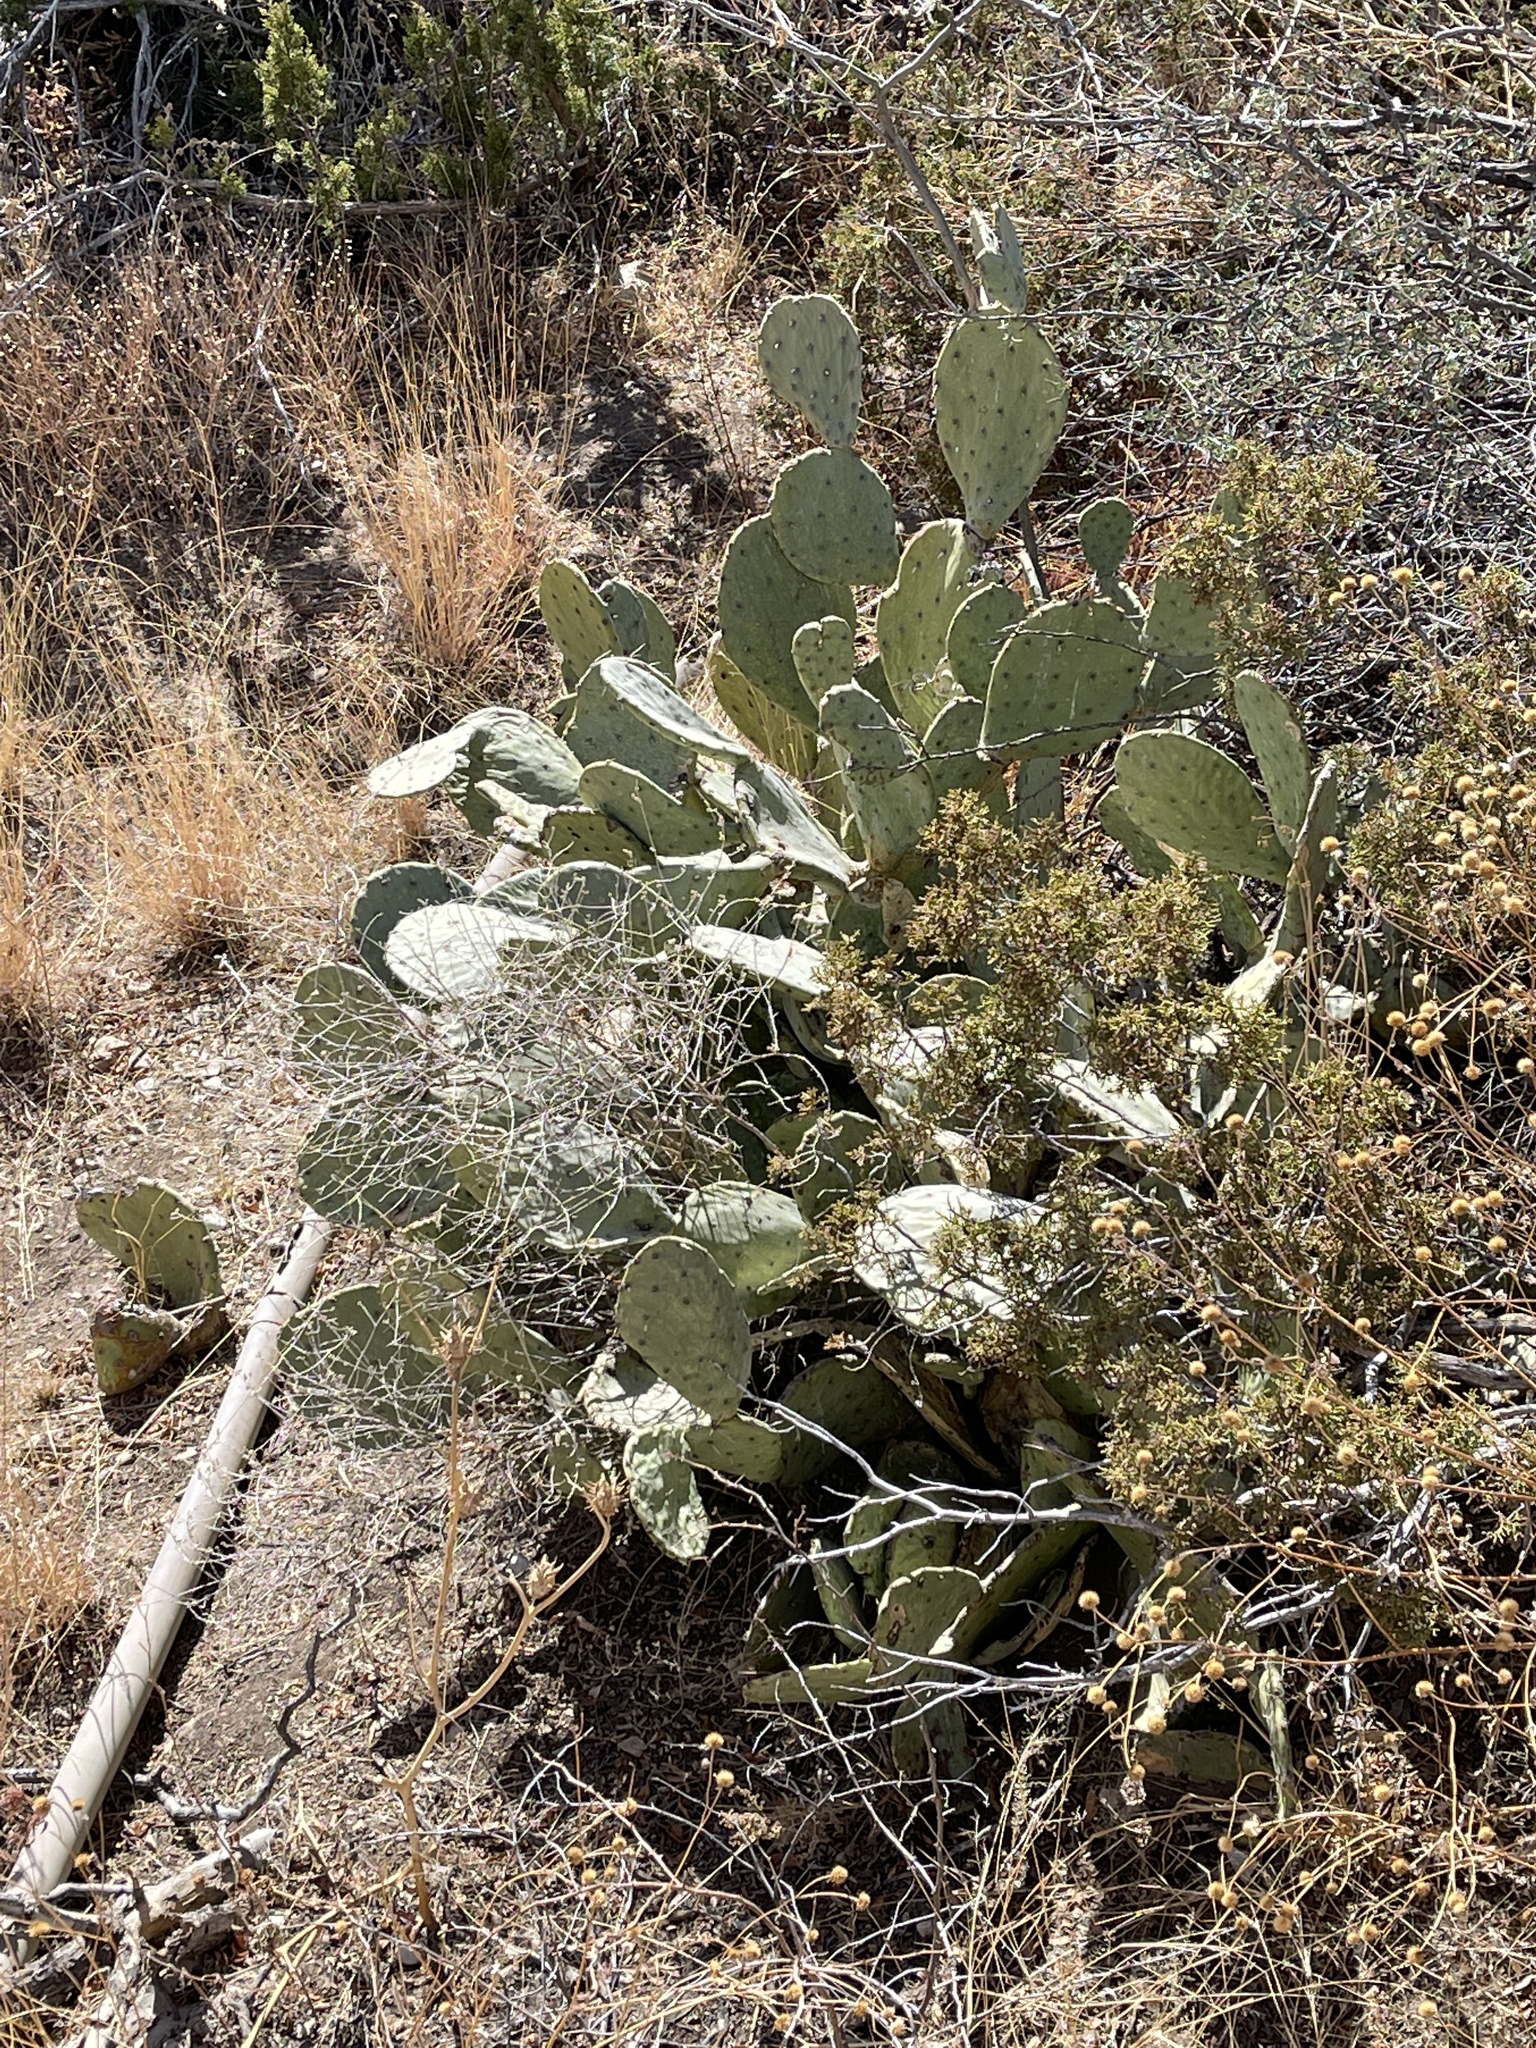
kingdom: Plantae
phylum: Tracheophyta
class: Magnoliopsida
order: Caryophyllales
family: Cactaceae
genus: Opuntia
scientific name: Opuntia engelmannii
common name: Cactus-apple
